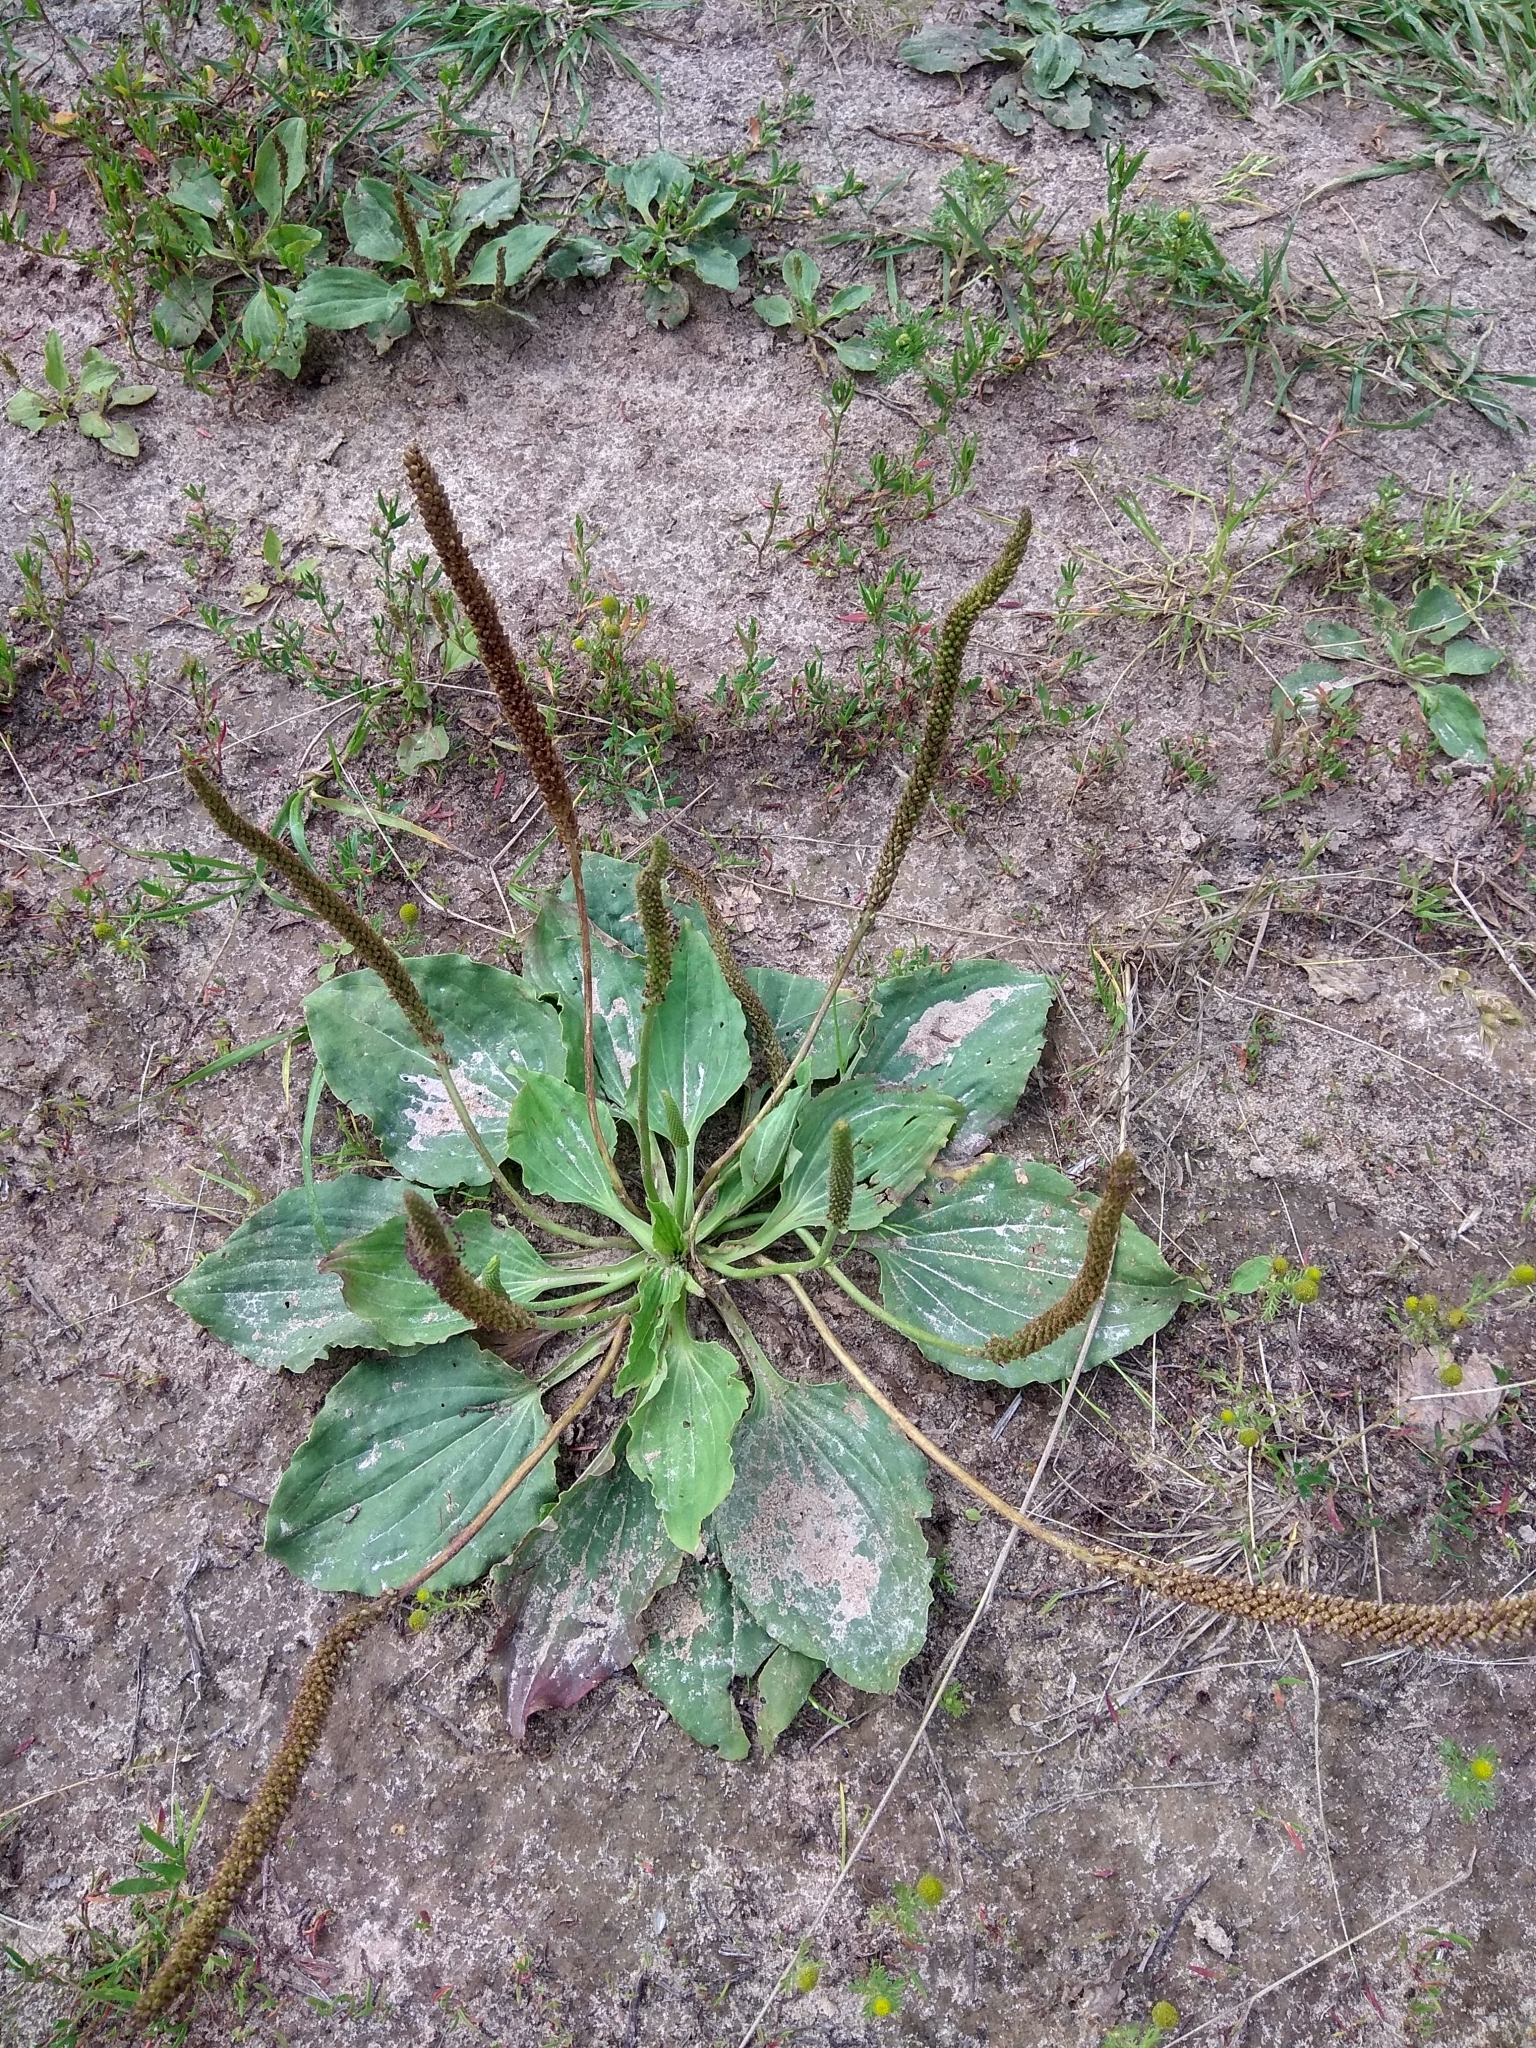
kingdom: Plantae
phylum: Tracheophyta
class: Magnoliopsida
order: Lamiales
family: Plantaginaceae
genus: Plantago
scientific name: Plantago major
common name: Common plantain
